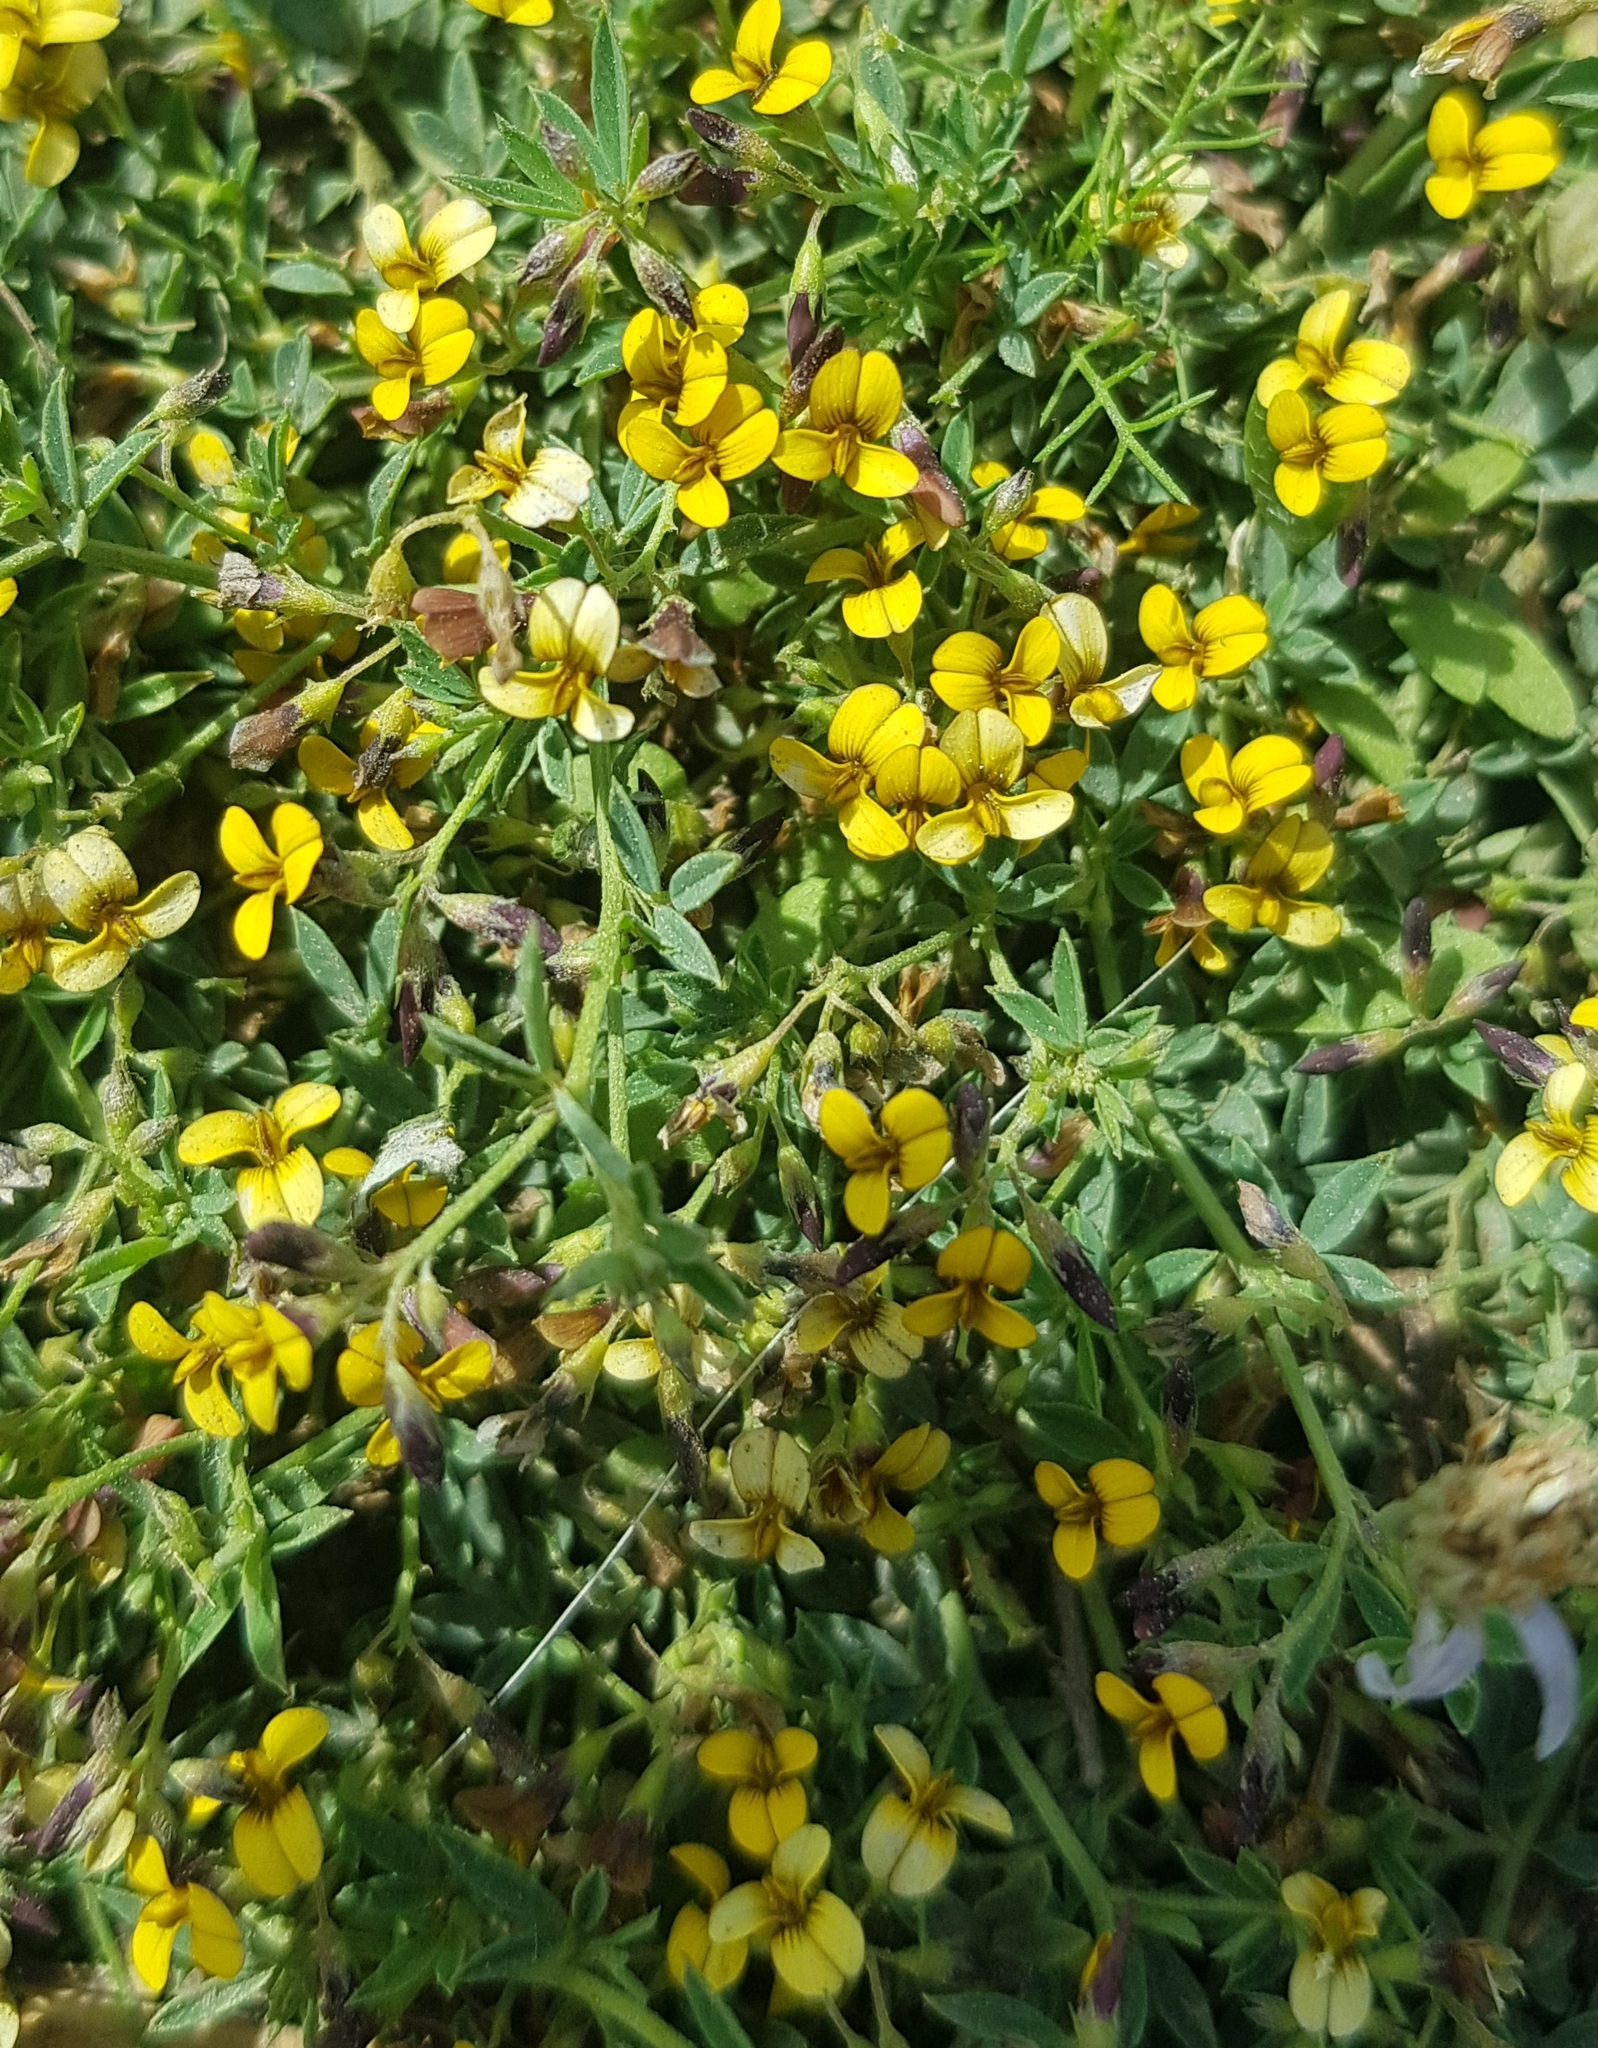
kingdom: Plantae
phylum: Tracheophyta
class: Magnoliopsida
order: Fabales
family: Fabaceae
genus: Medicago
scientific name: Medicago ruthenica
